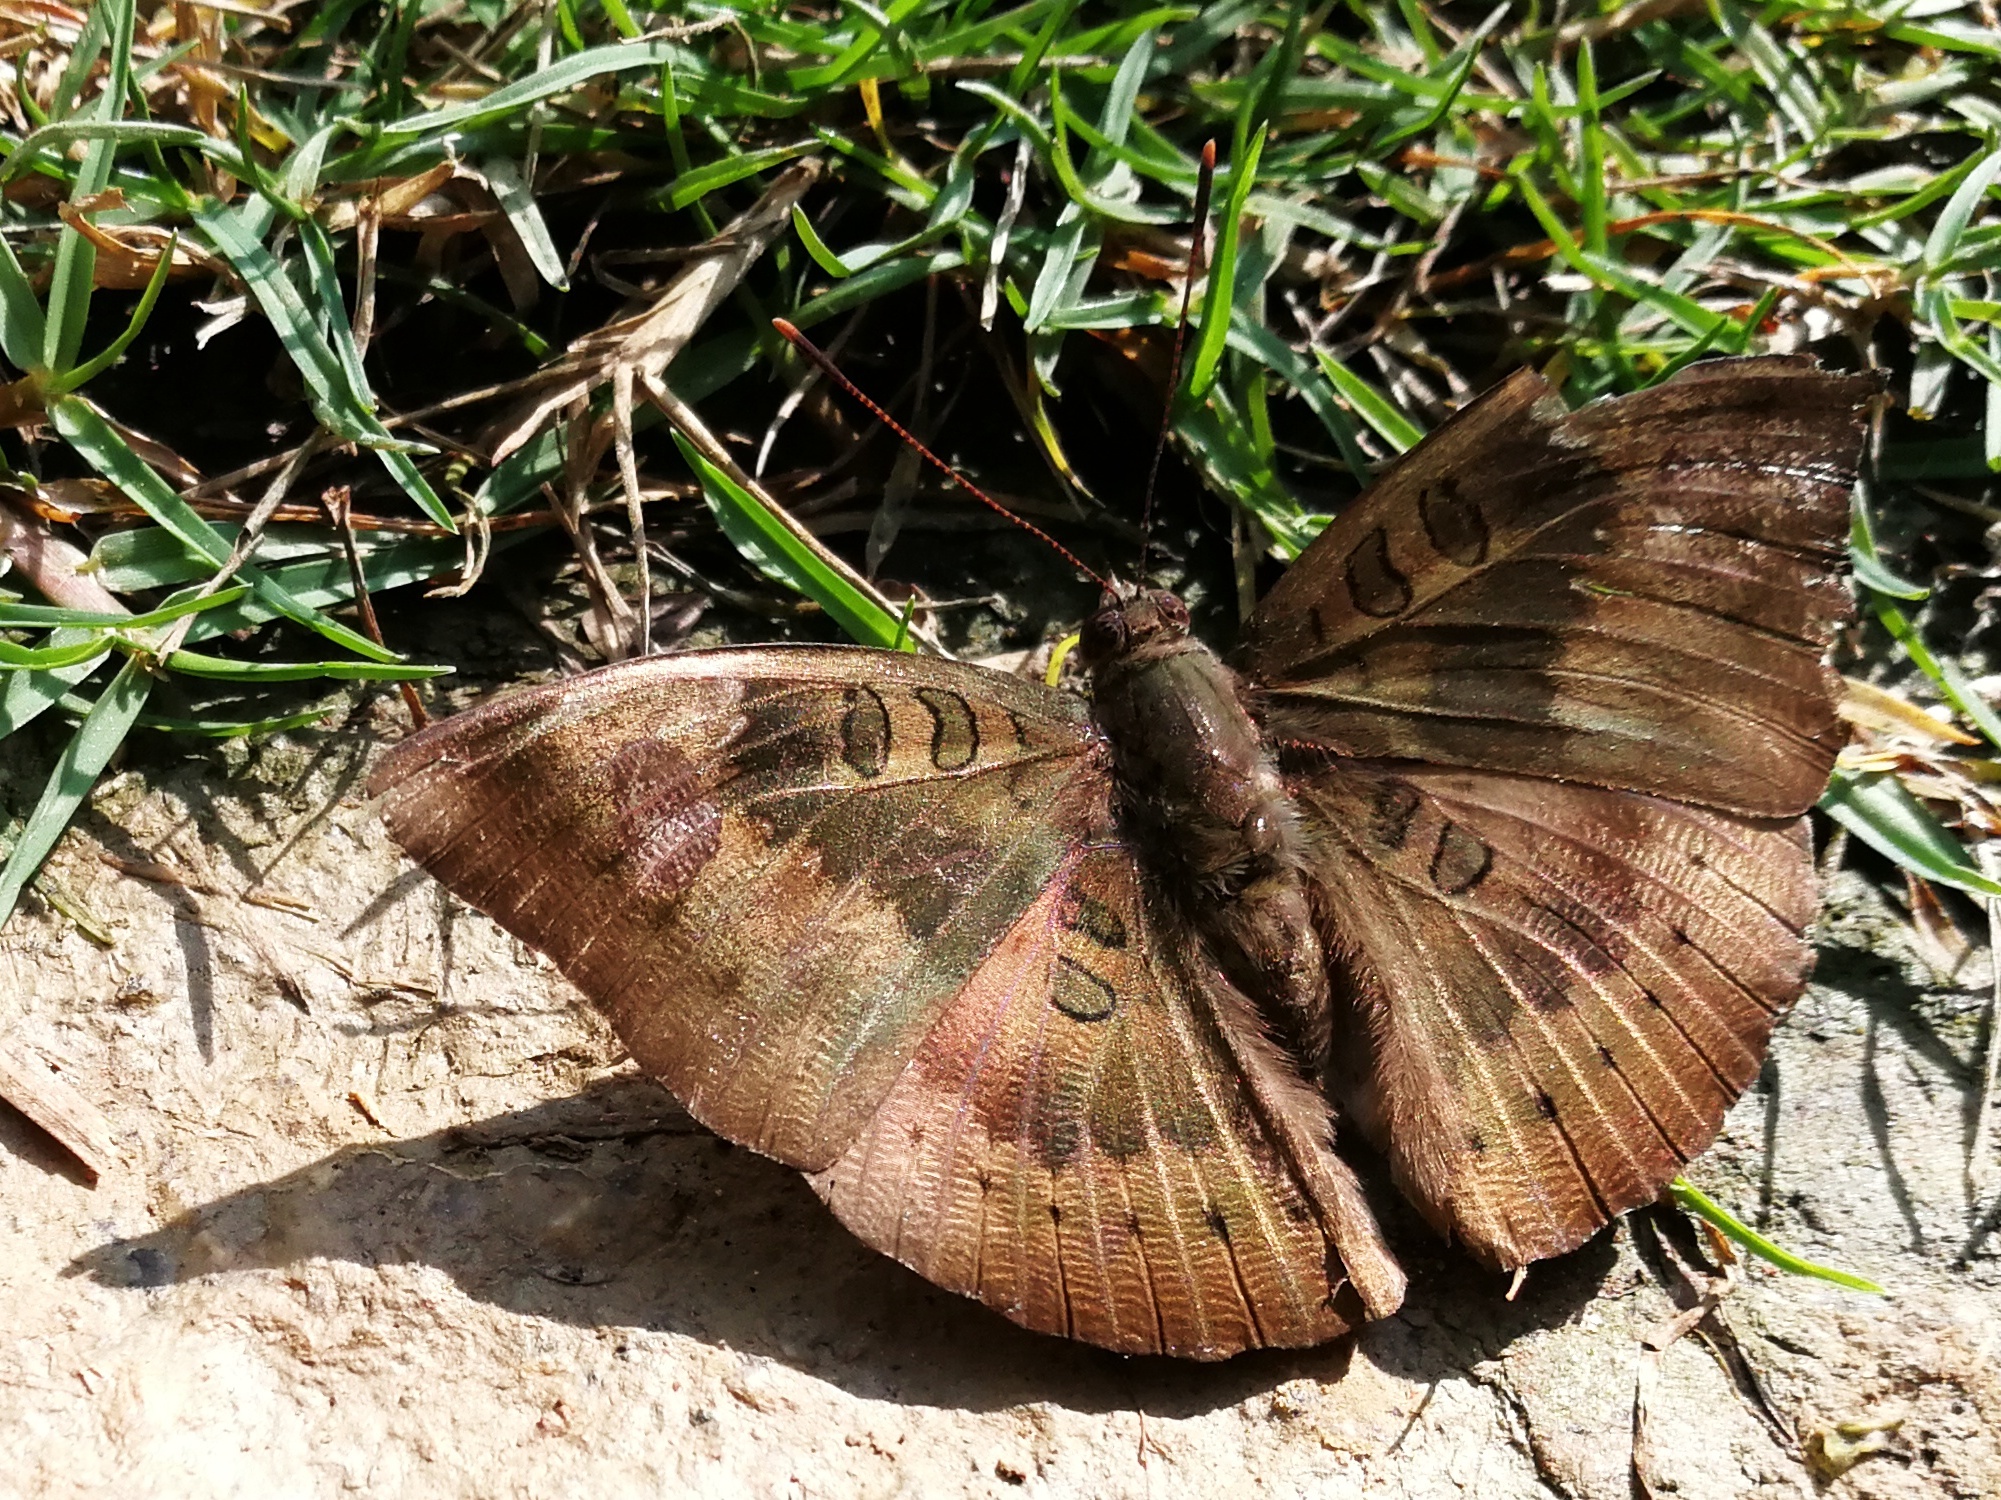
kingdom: Animalia
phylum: Arthropoda
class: Insecta
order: Lepidoptera
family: Nymphalidae
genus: Euthalia
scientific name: Euthalia aconthea
